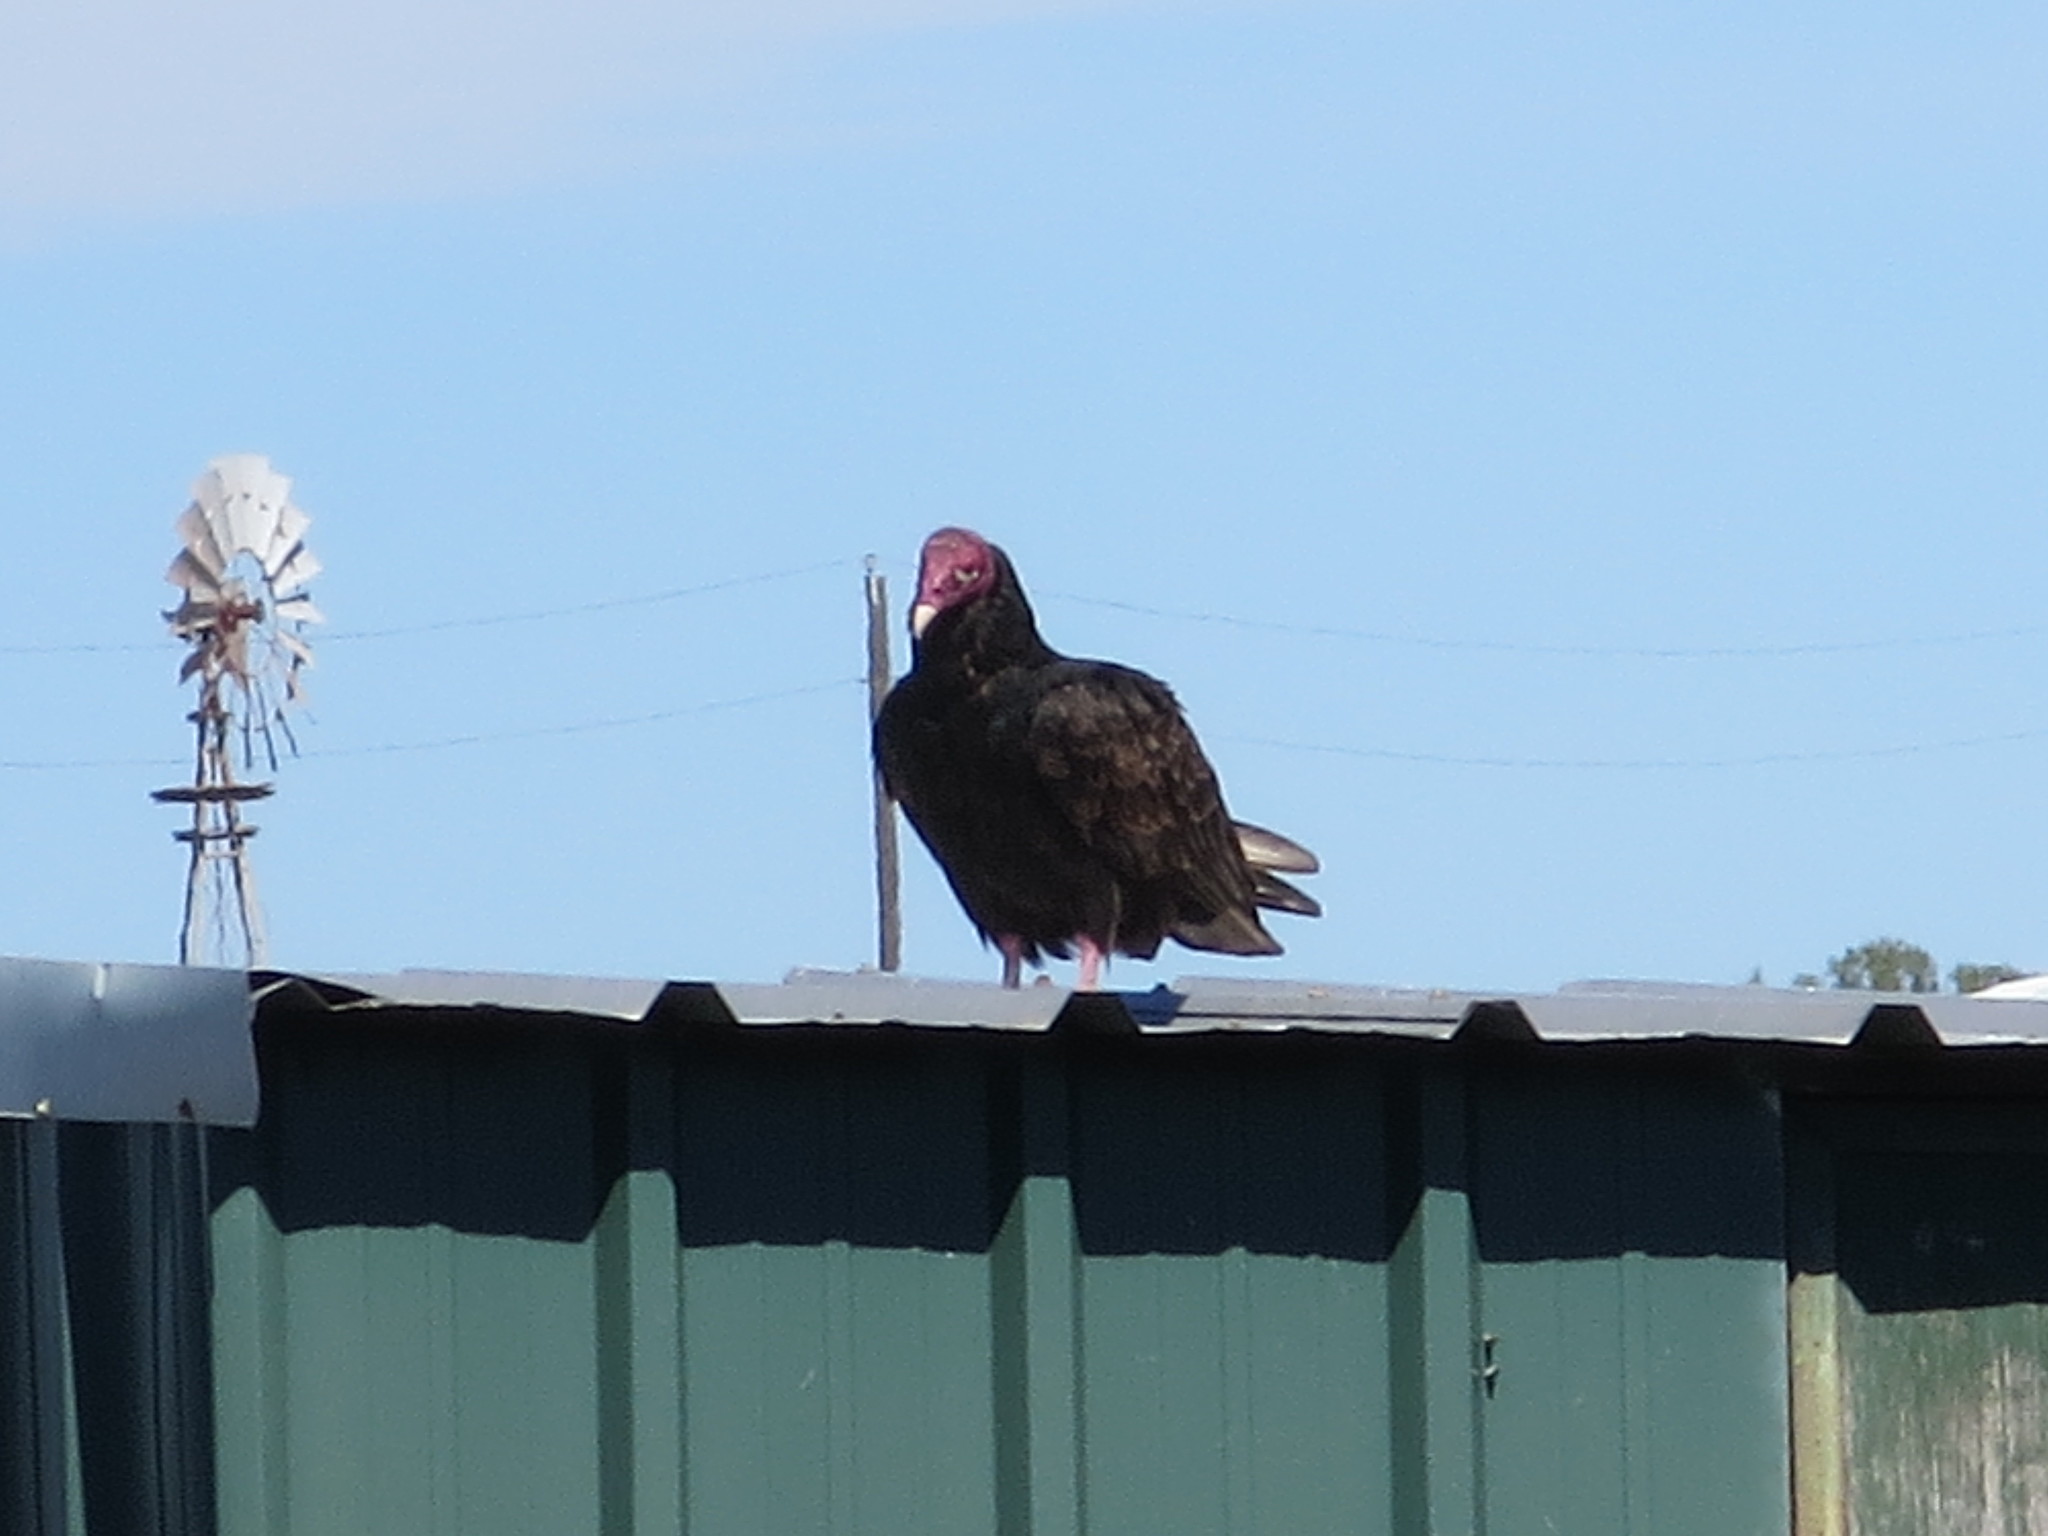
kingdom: Animalia
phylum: Chordata
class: Aves
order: Accipitriformes
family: Cathartidae
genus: Cathartes
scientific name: Cathartes aura
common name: Turkey vulture
